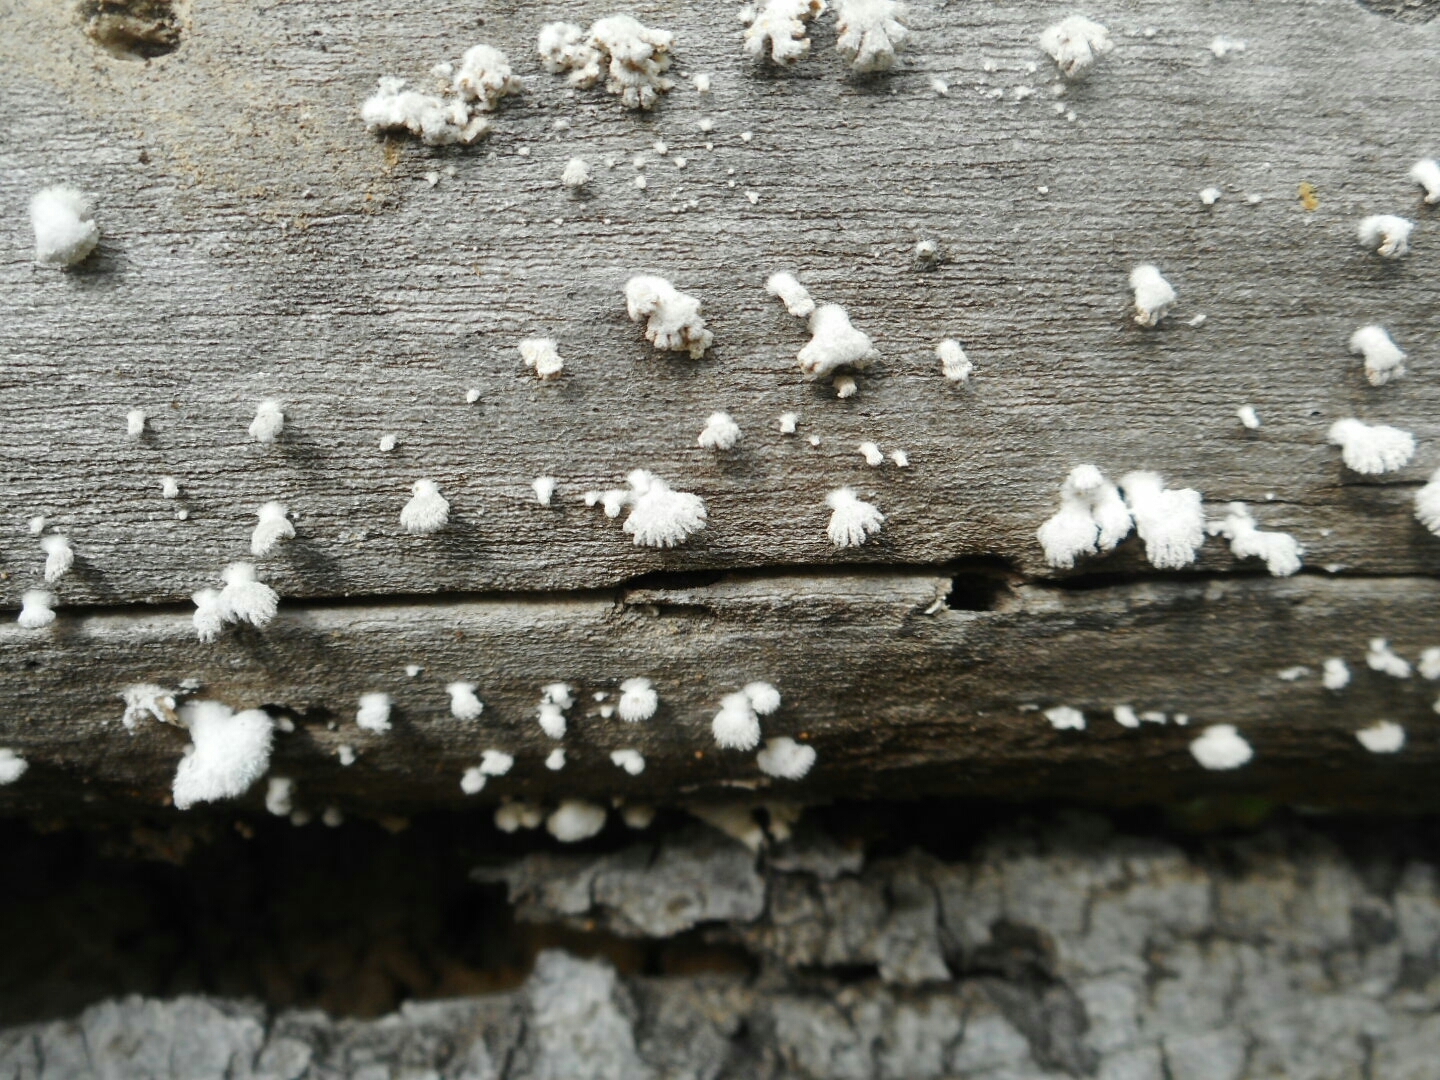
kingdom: Fungi
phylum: Basidiomycota
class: Agaricomycetes
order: Agaricales
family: Schizophyllaceae
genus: Schizophyllum
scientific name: Schizophyllum commune
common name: Common porecrust
